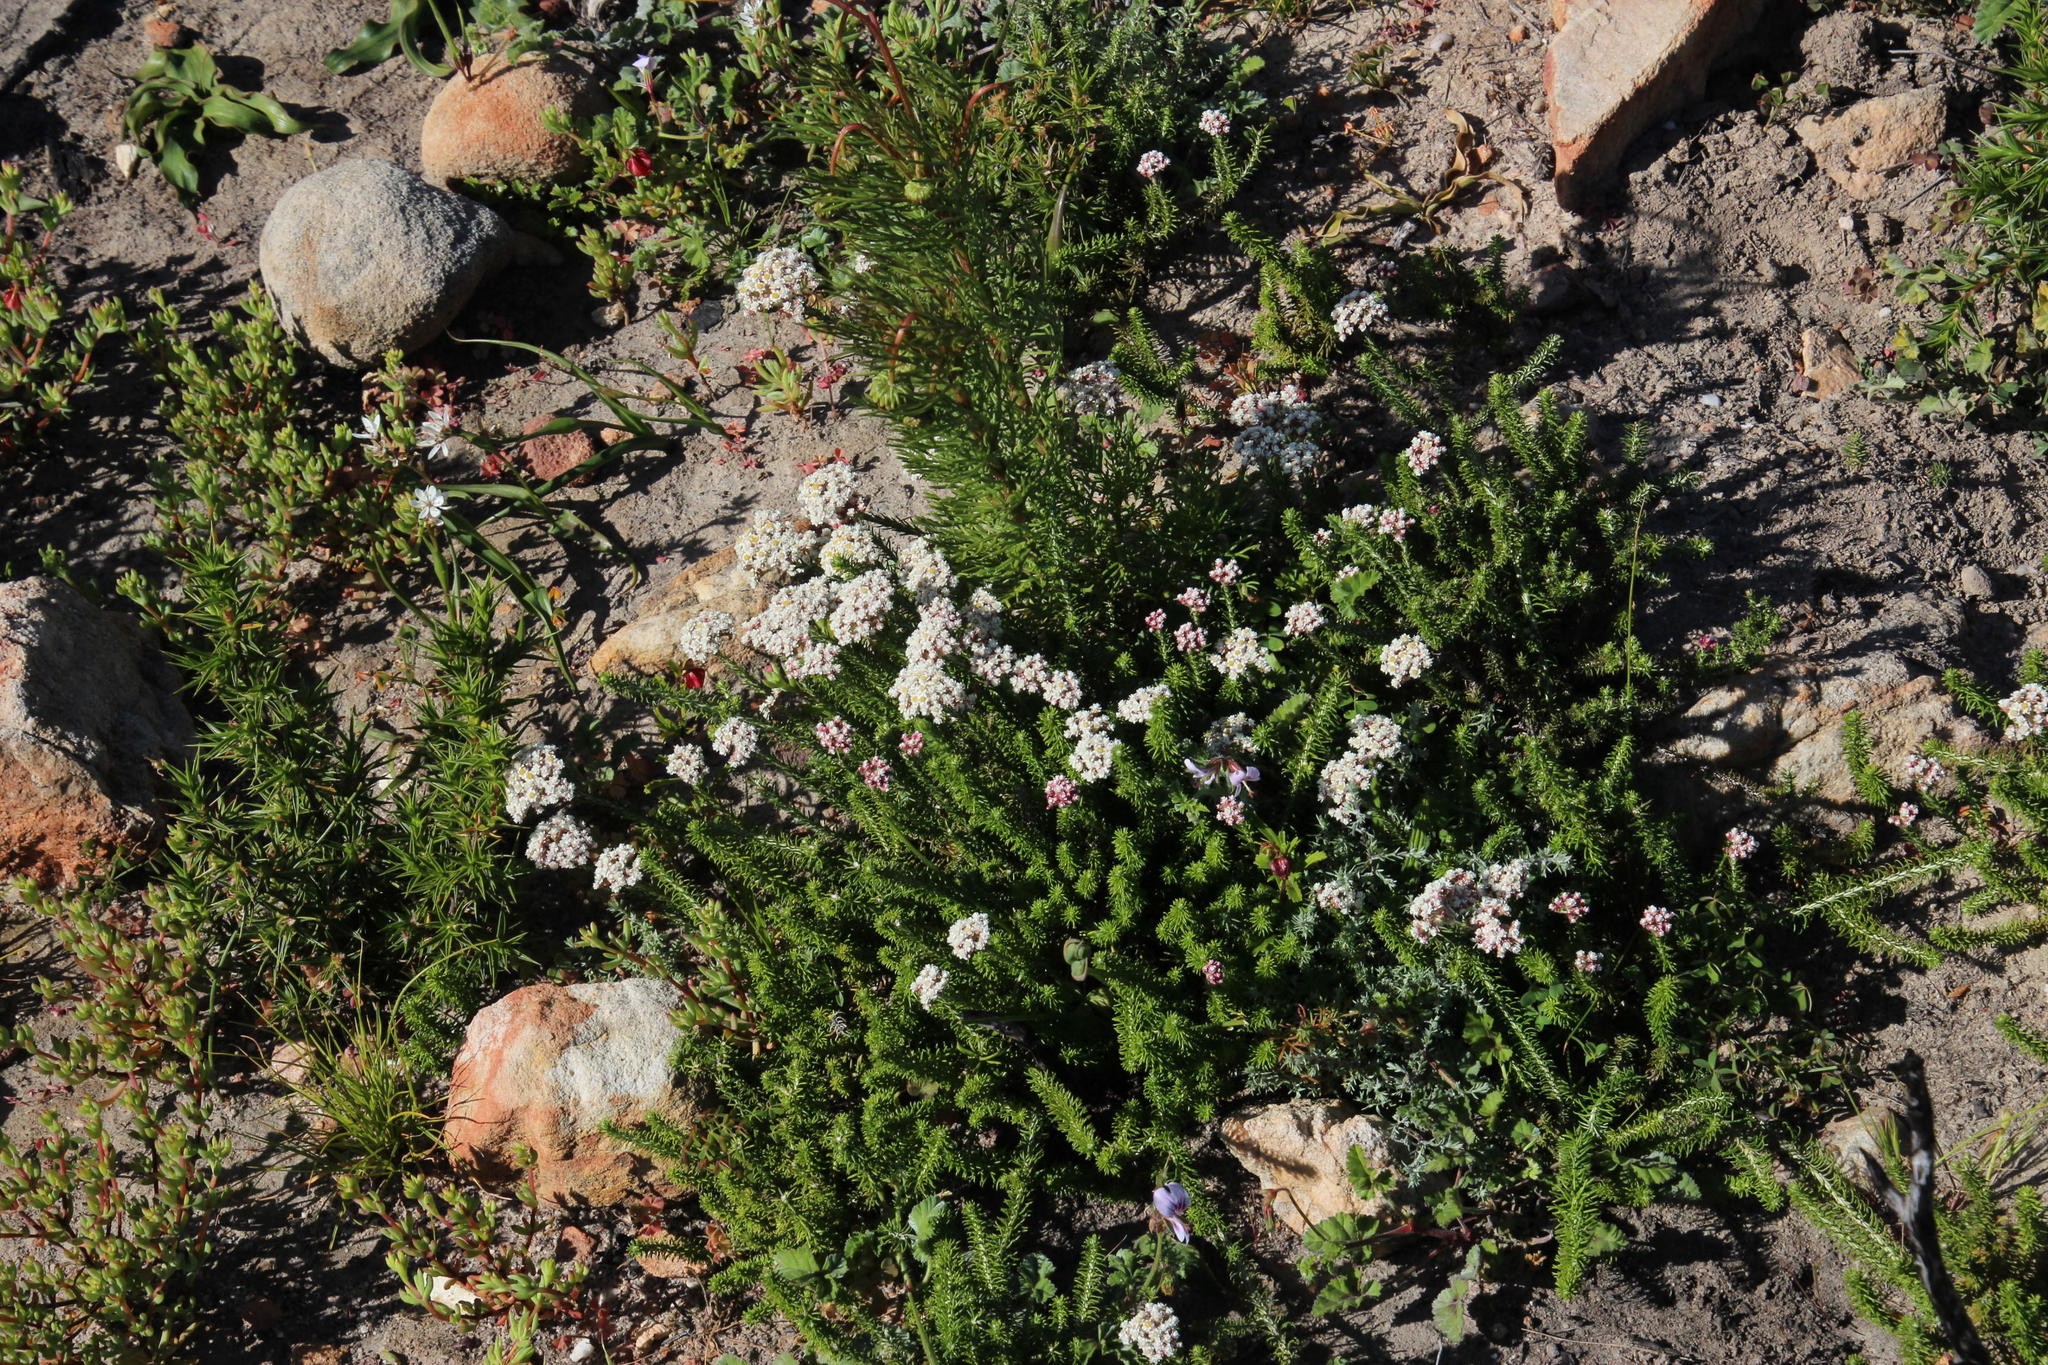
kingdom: Plantae
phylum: Tracheophyta
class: Magnoliopsida
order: Asterales
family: Asteraceae
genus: Helichrysum
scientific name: Helichrysum teretifolium
